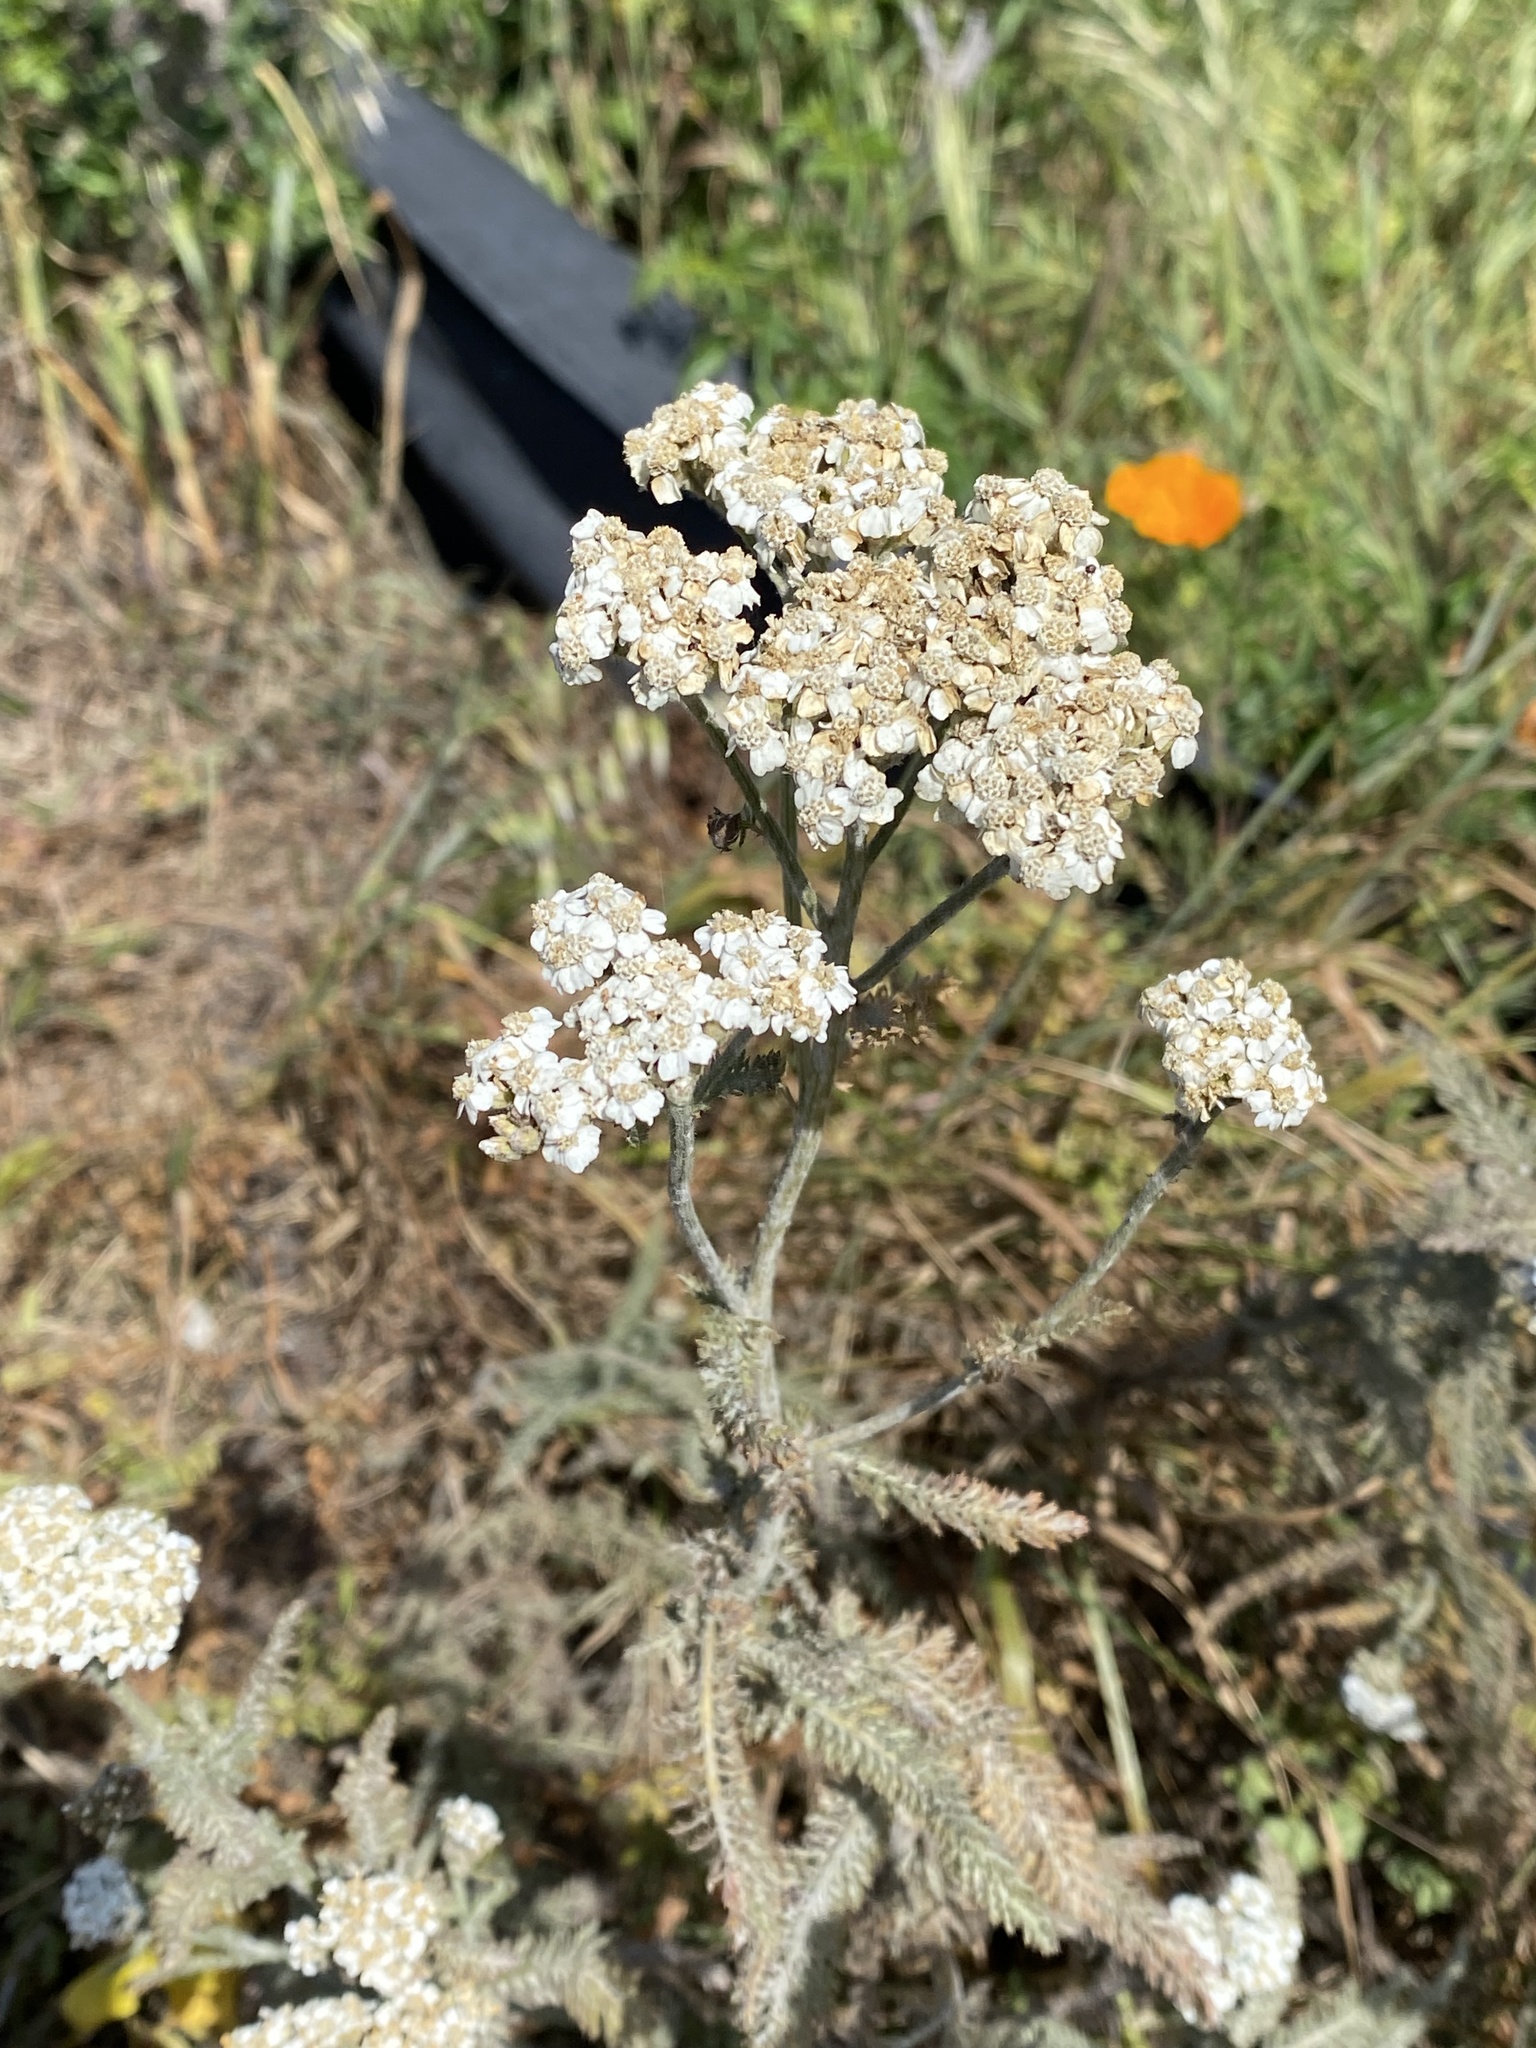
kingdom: Plantae
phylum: Tracheophyta
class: Magnoliopsida
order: Asterales
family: Asteraceae
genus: Achillea
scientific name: Achillea millefolium
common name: Yarrow
